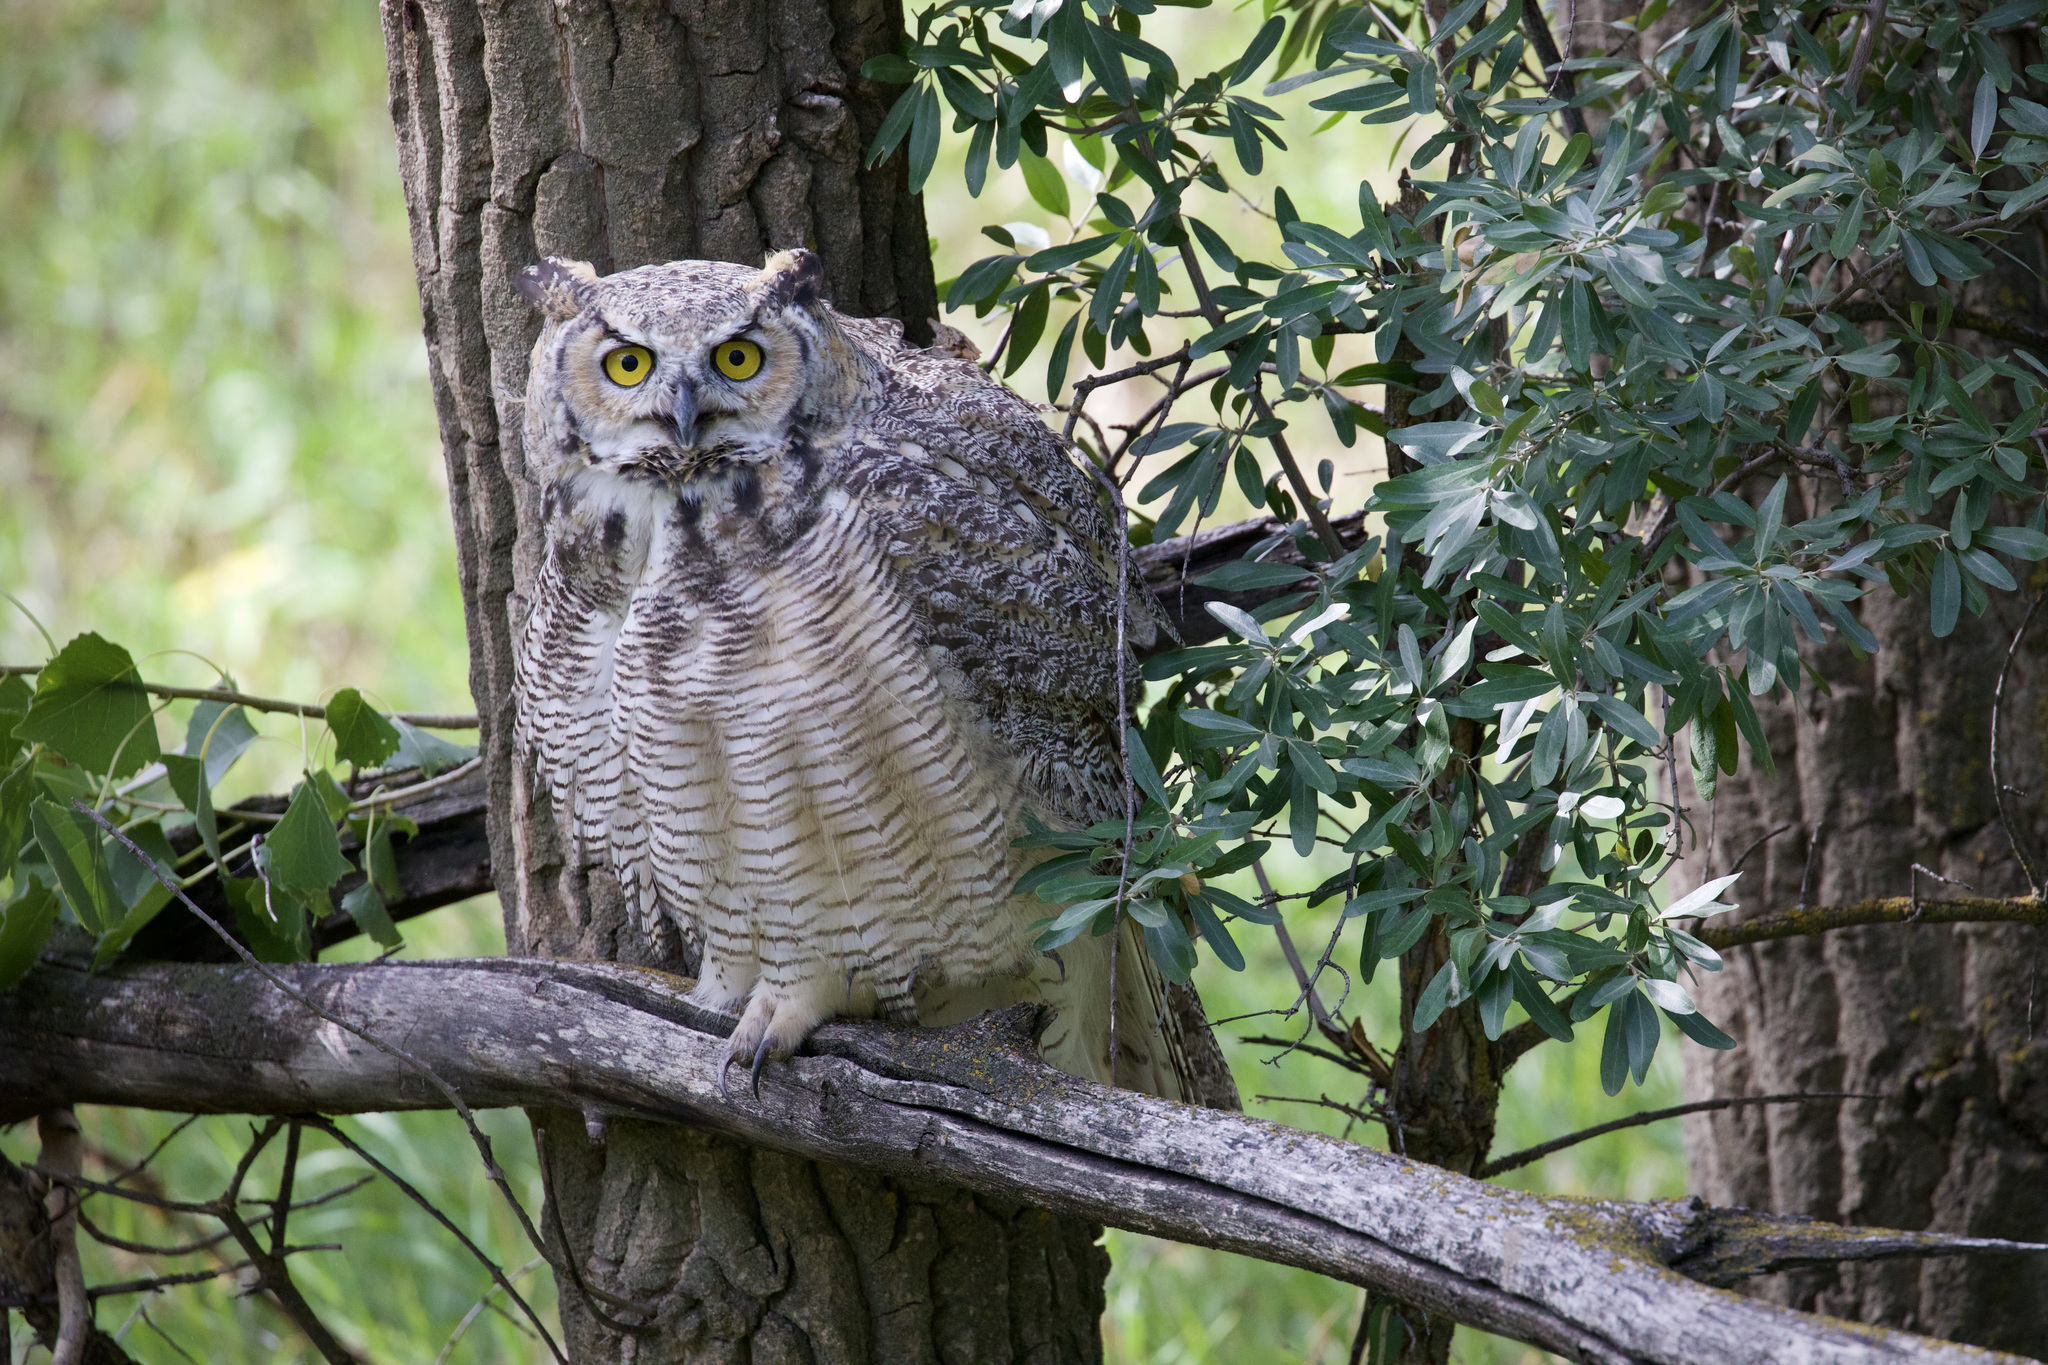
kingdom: Animalia
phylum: Chordata
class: Aves
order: Strigiformes
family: Strigidae
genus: Bubo
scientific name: Bubo virginianus
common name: Great horned owl
